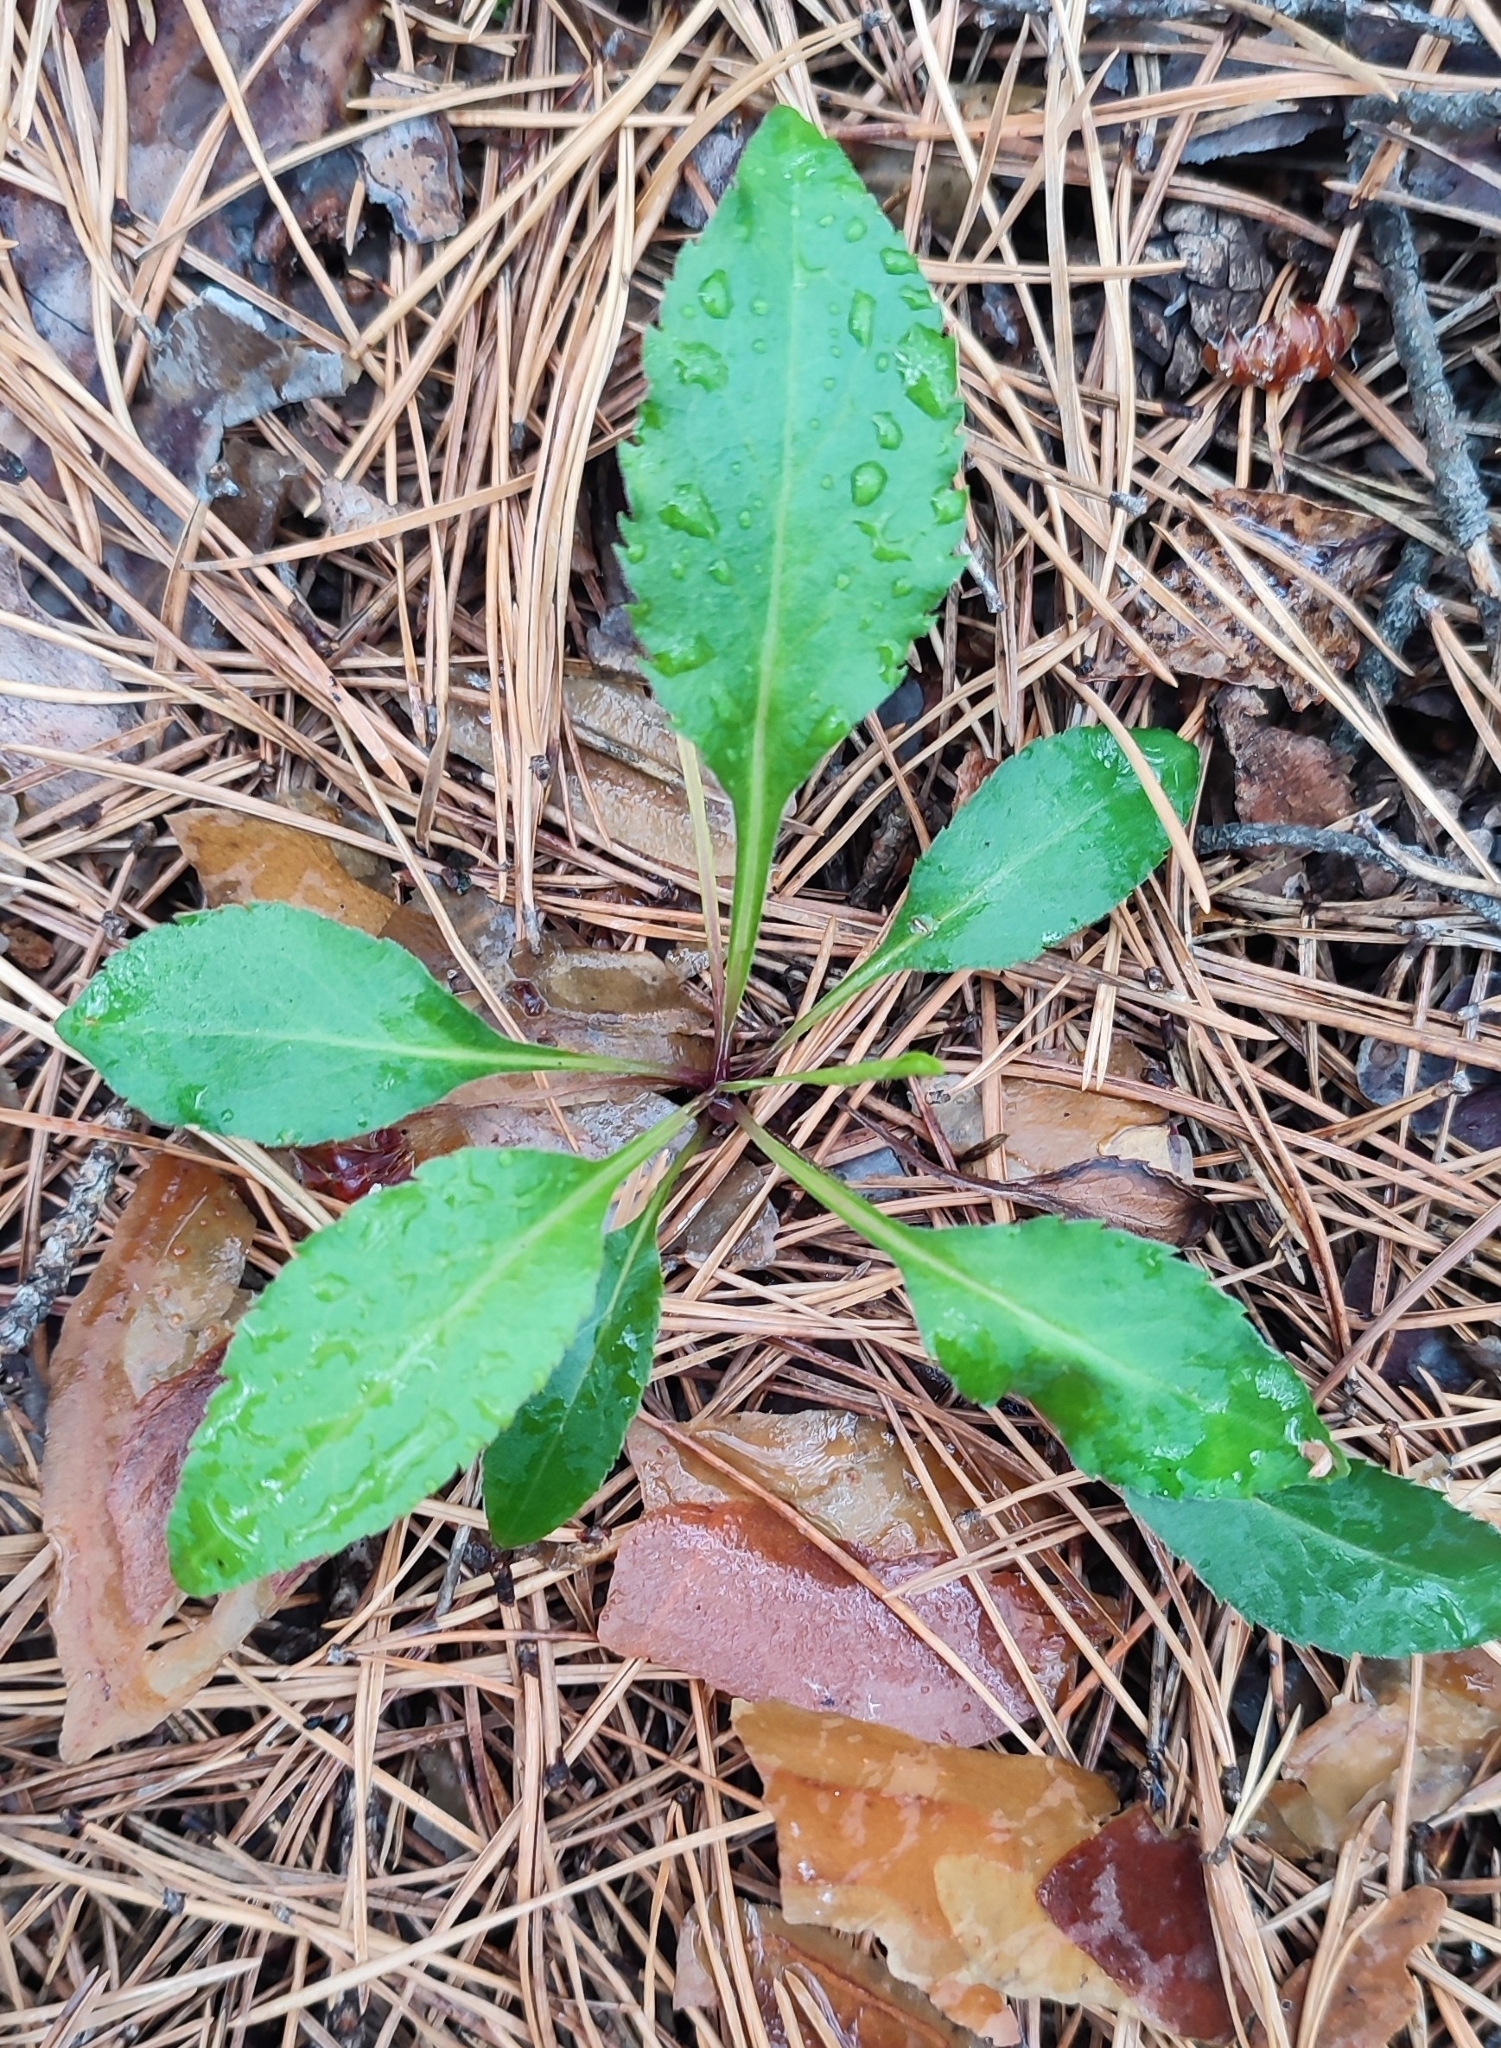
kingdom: Plantae
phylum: Tracheophyta
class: Magnoliopsida
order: Asterales
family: Asteraceae
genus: Solidago
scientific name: Solidago virgaurea
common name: Goldenrod
